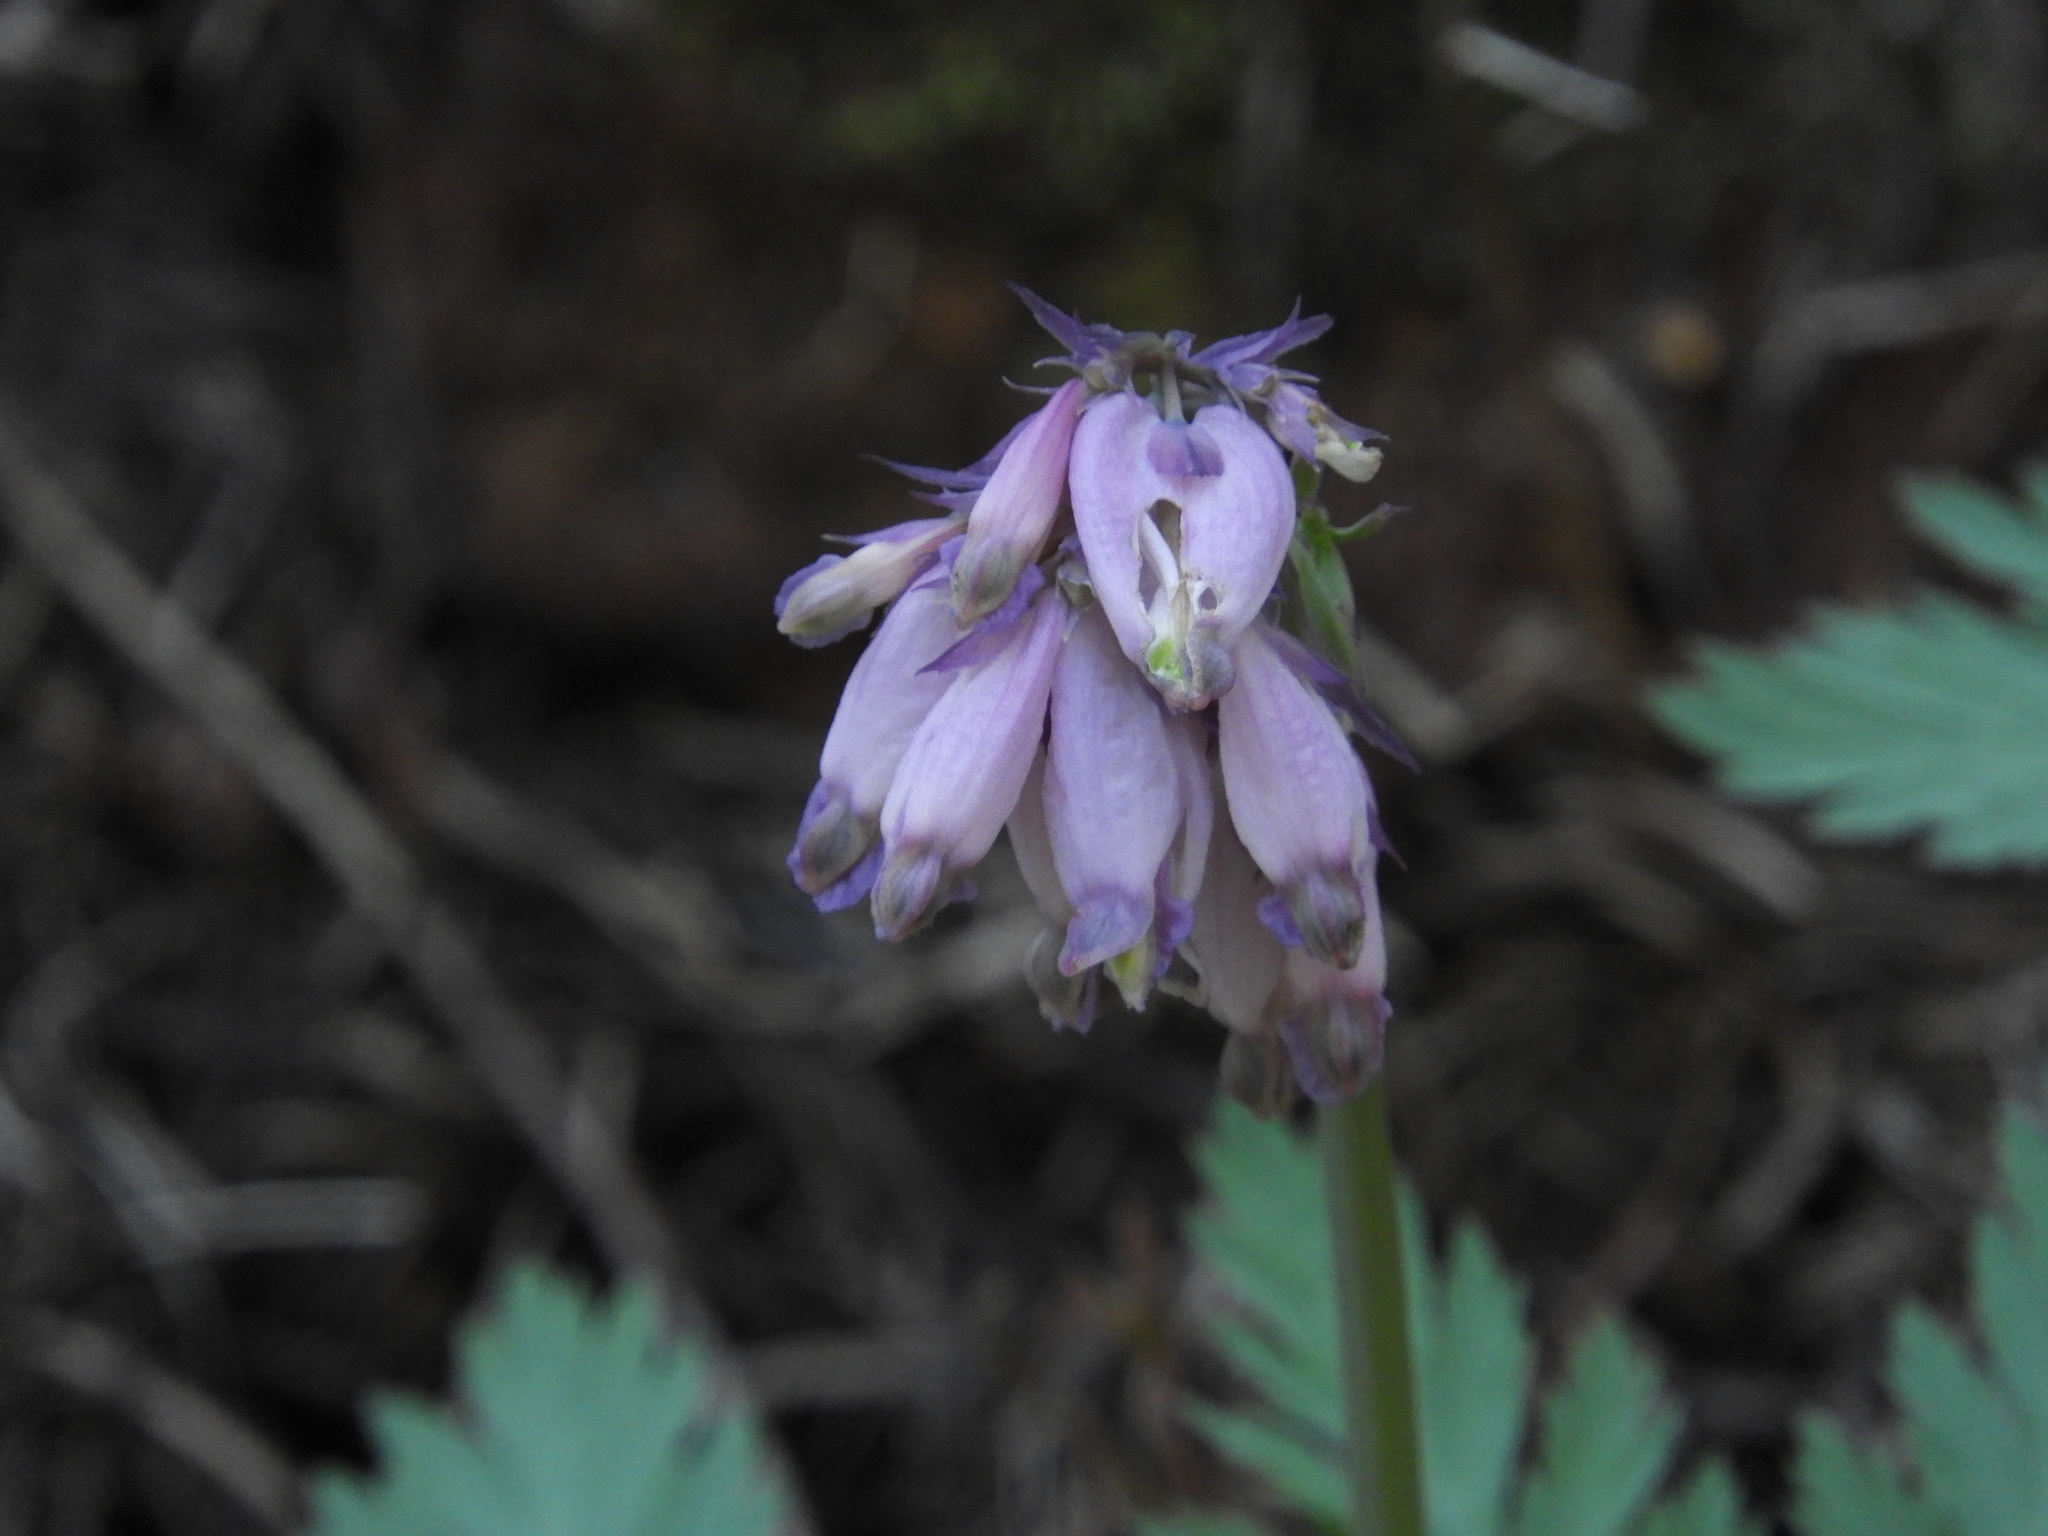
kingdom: Plantae
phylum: Tracheophyta
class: Magnoliopsida
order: Ranunculales
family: Papaveraceae
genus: Dicentra
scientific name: Dicentra formosa
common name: Bleeding-heart
